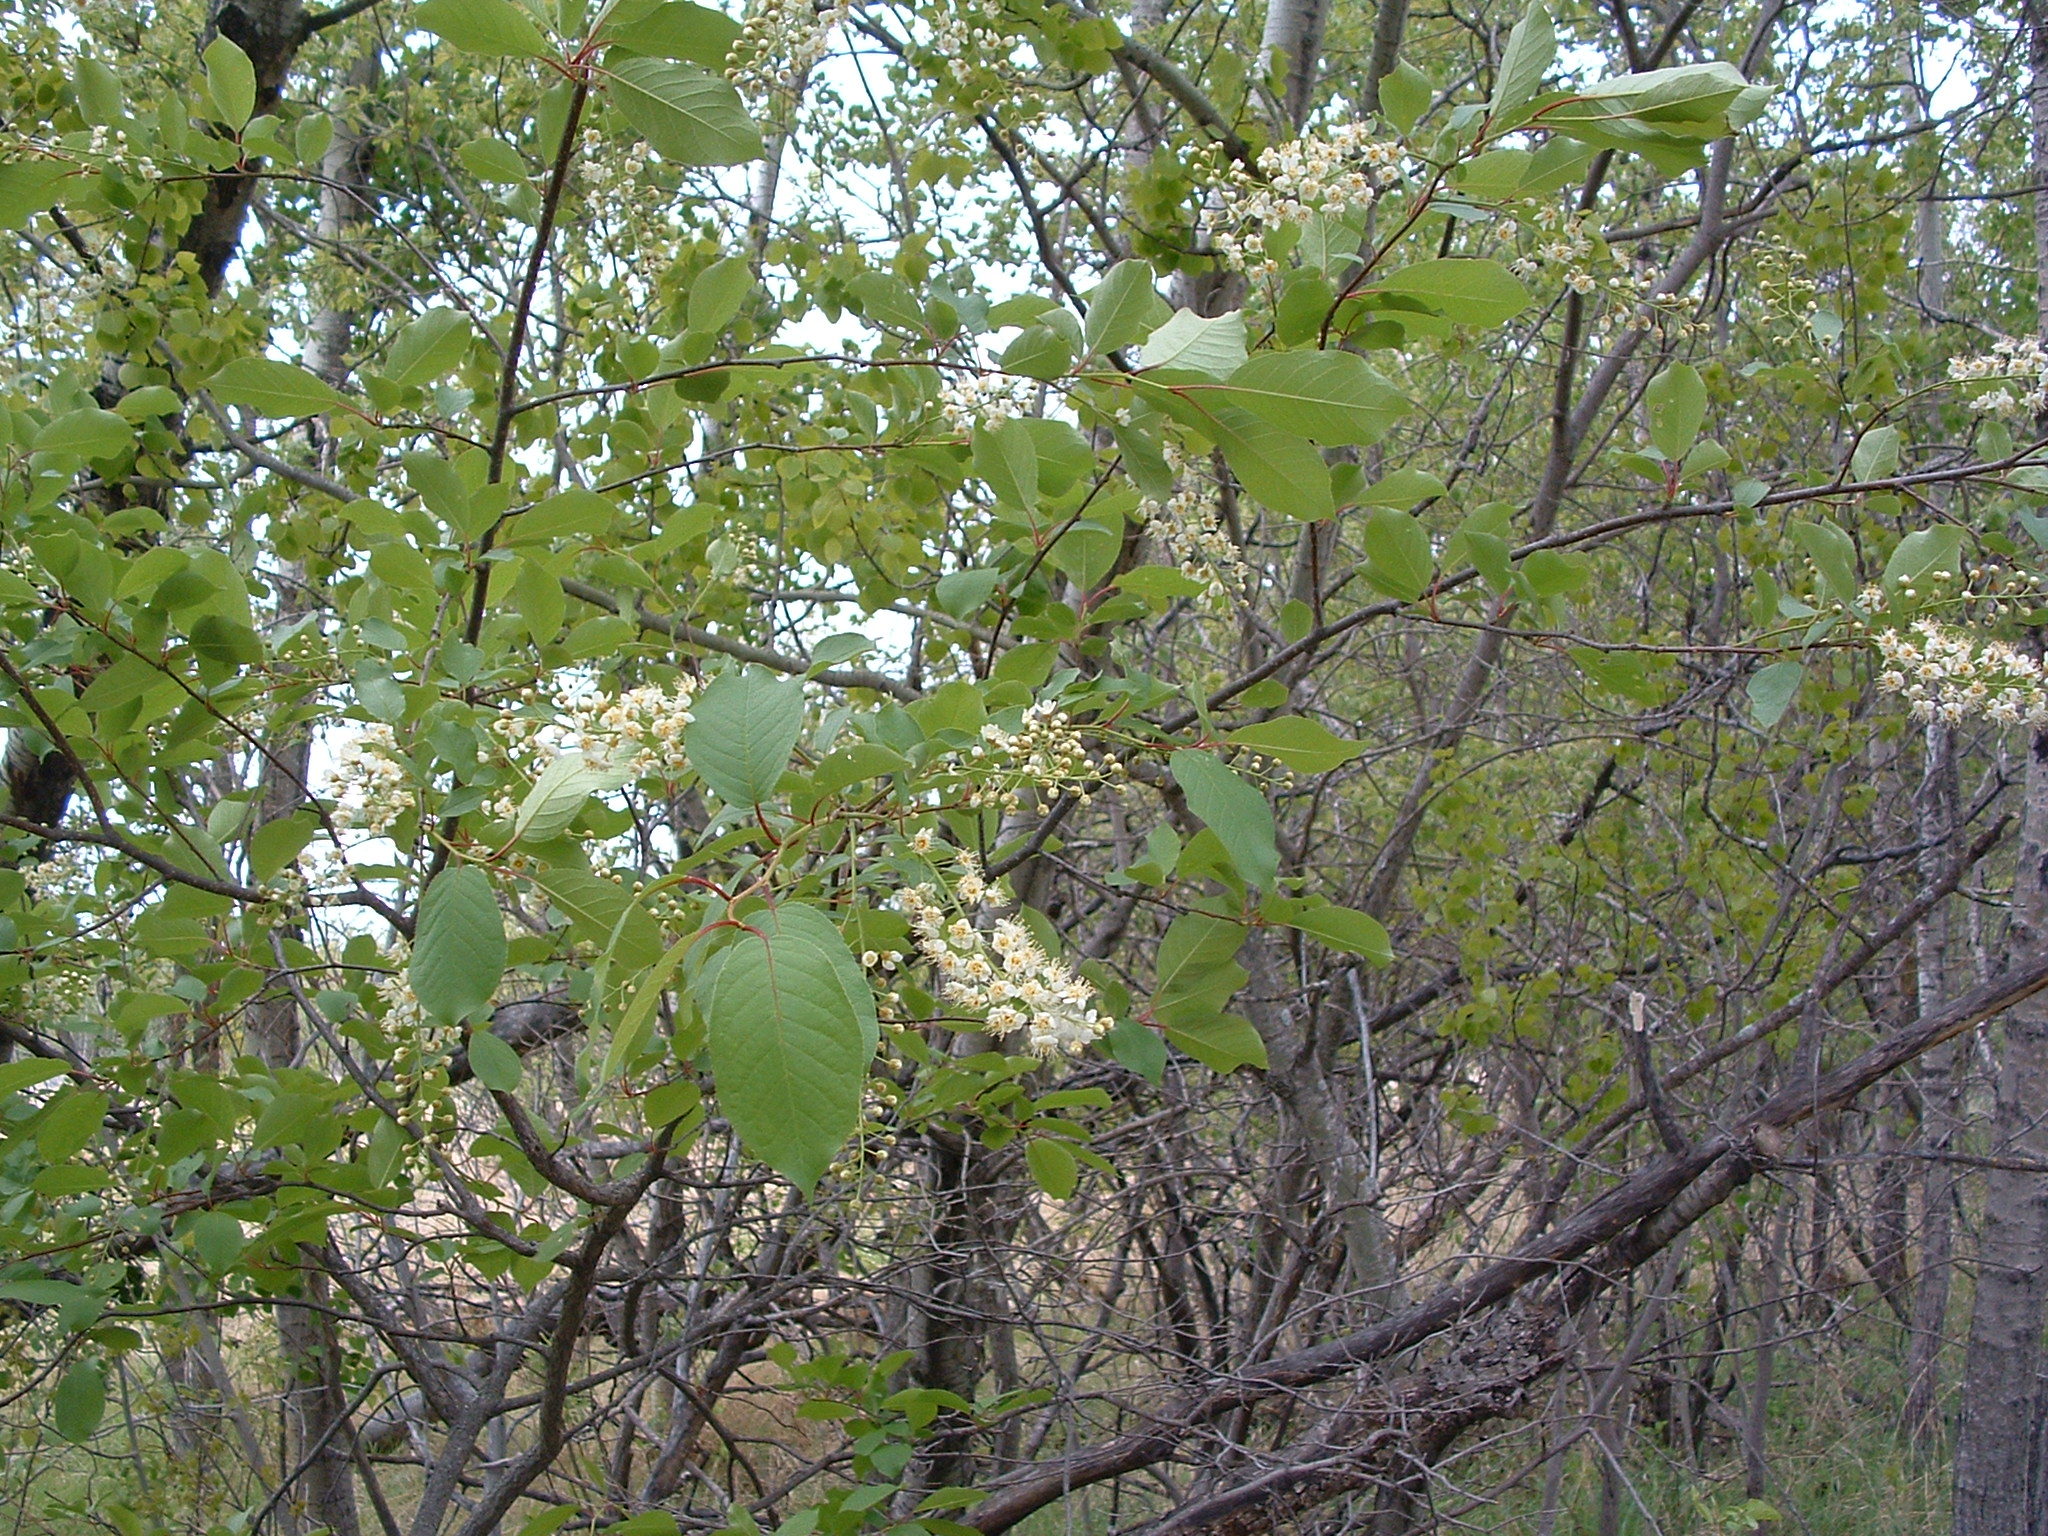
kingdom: Plantae
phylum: Tracheophyta
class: Magnoliopsida
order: Rosales
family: Rosaceae
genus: Prunus
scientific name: Prunus virginiana
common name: Chokecherry
